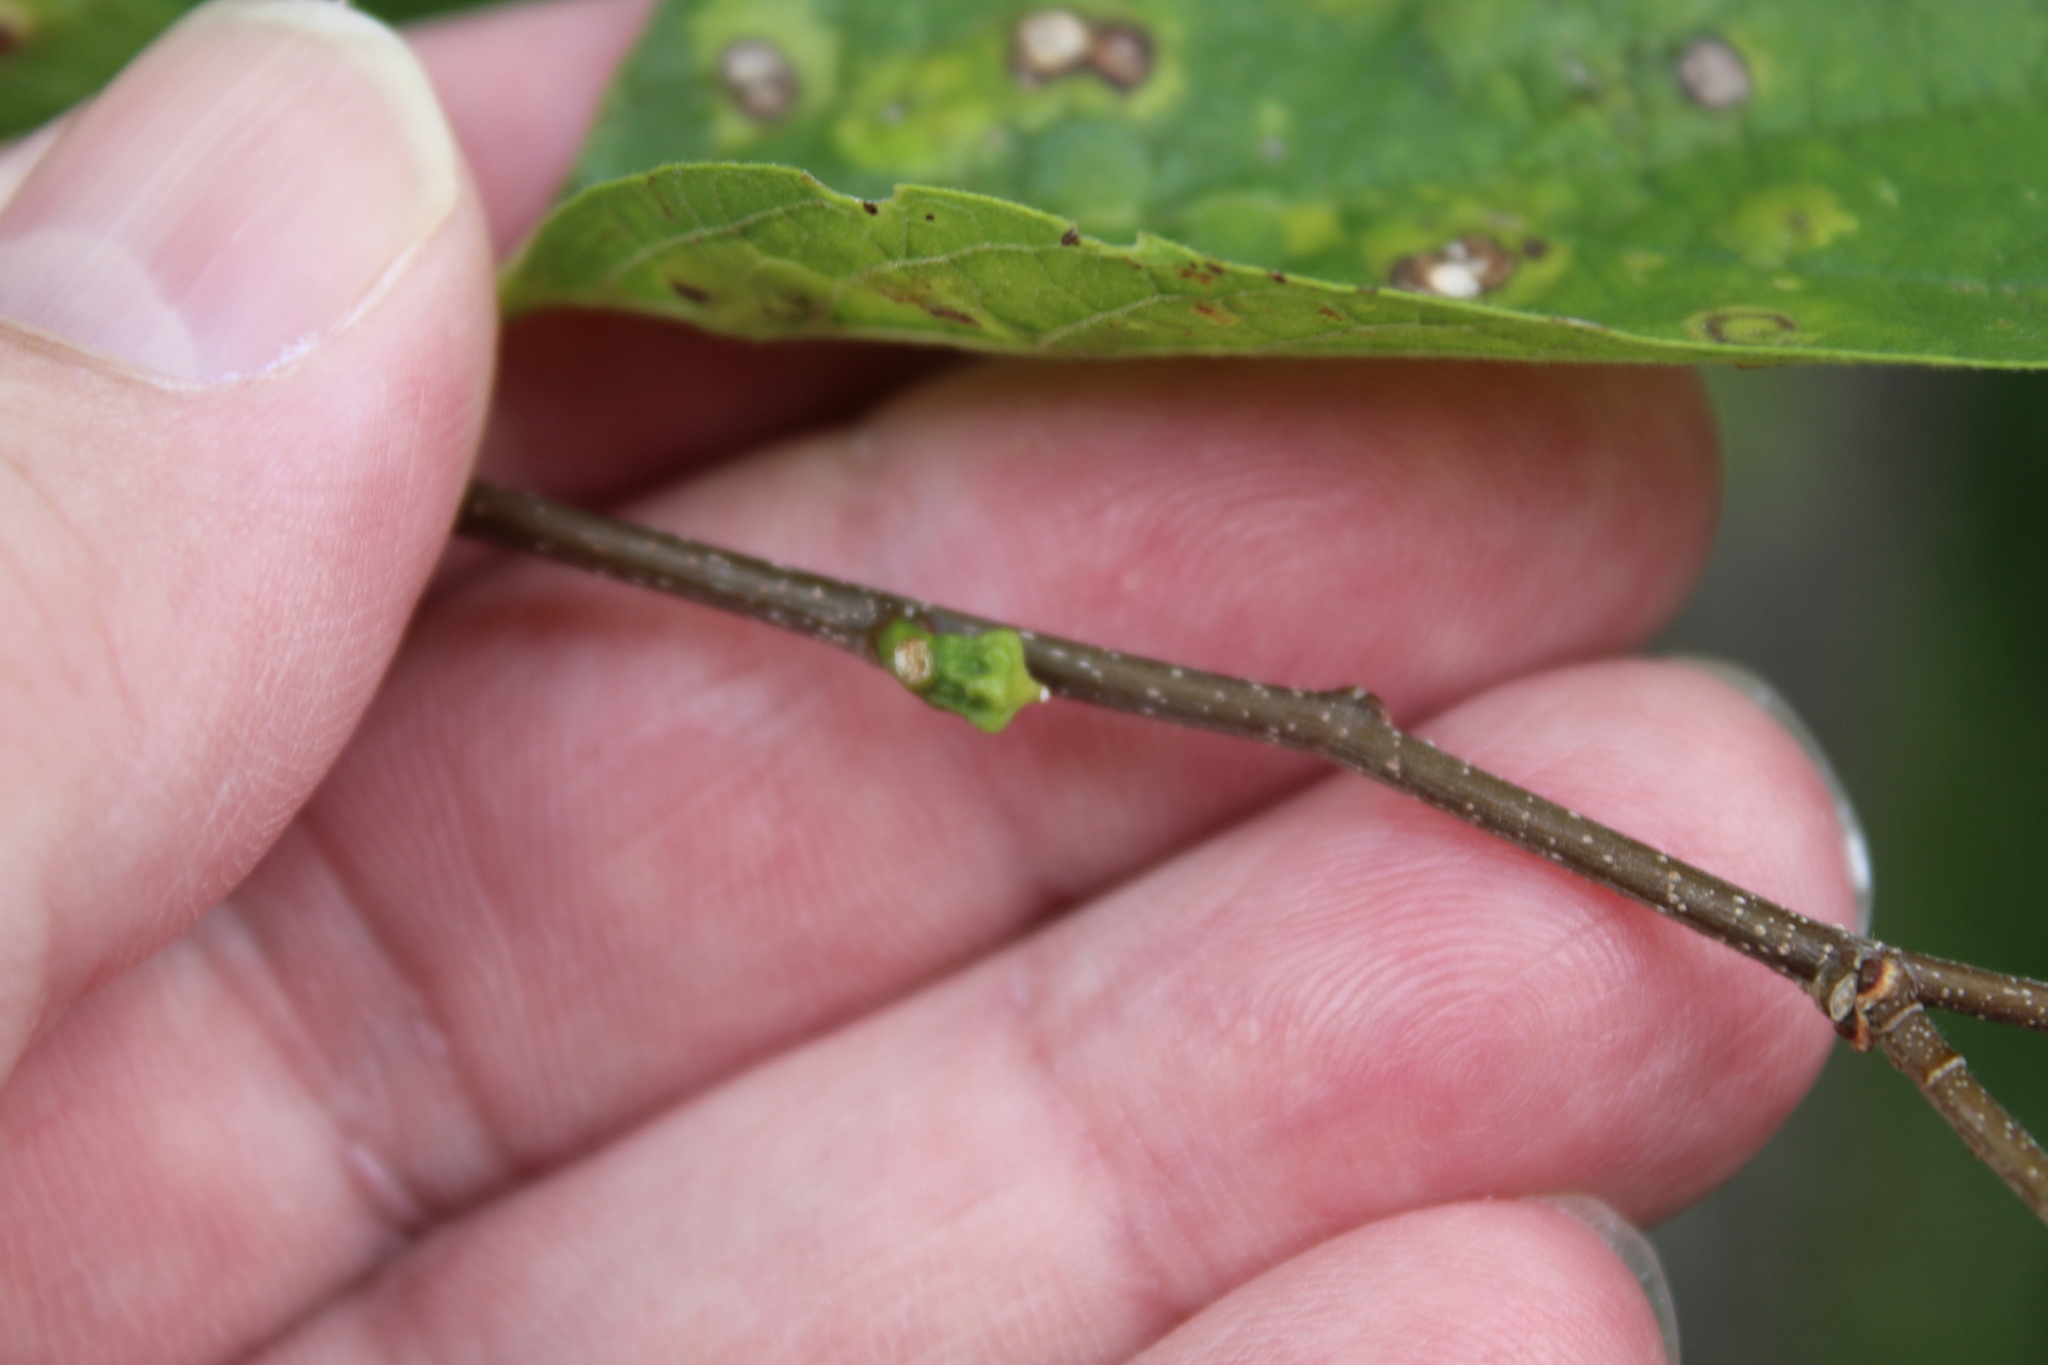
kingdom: Animalia
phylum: Arthropoda
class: Insecta
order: Diptera
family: Cecidomyiidae
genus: Celticecis
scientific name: Celticecis ramicola
